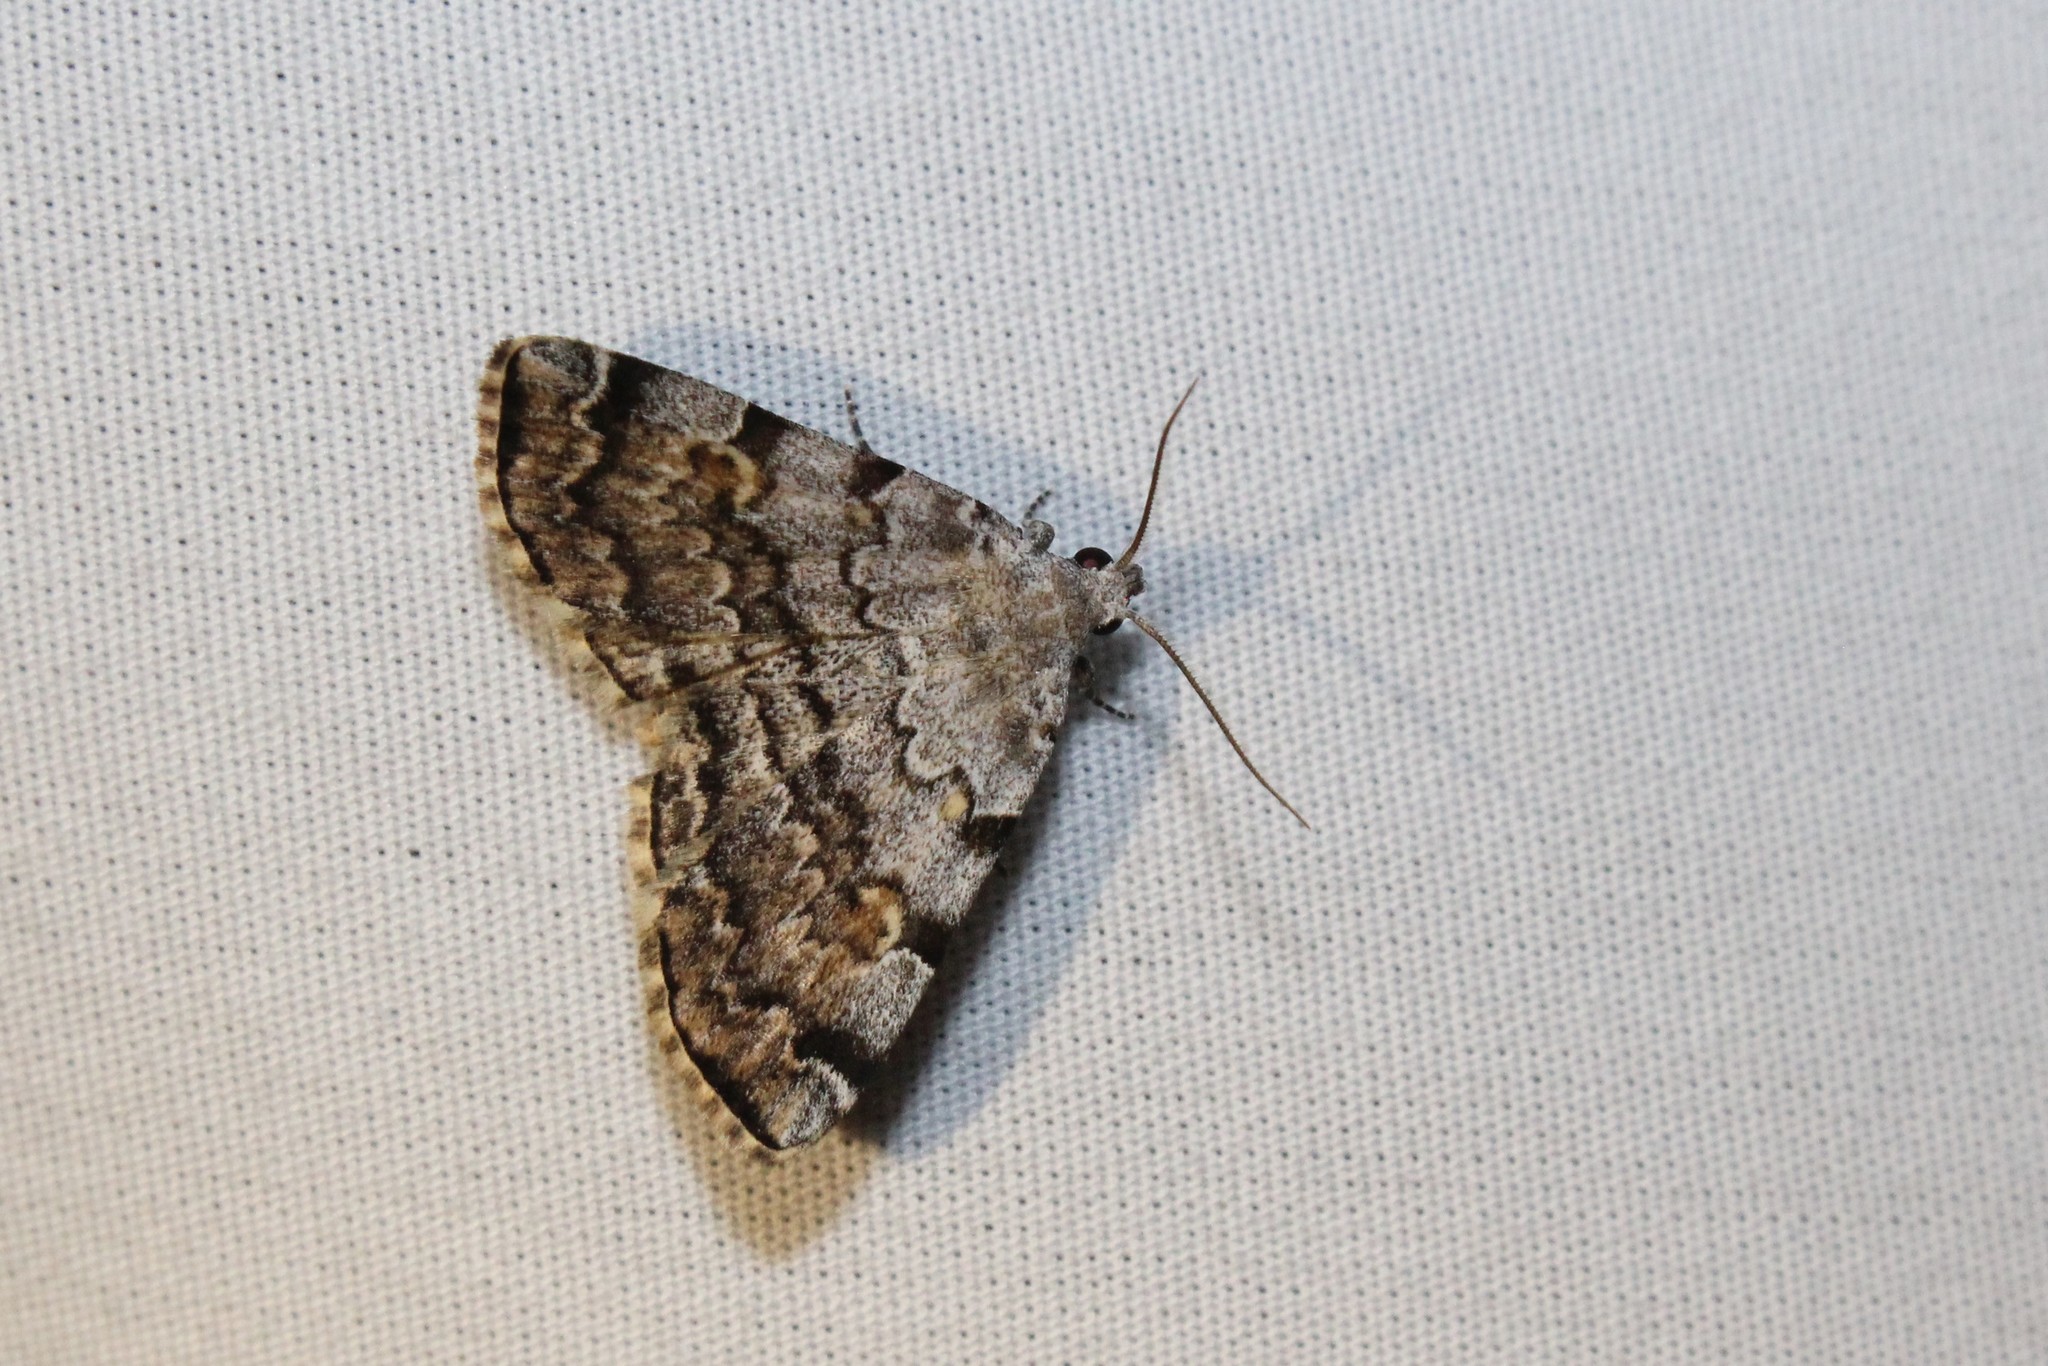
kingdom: Animalia
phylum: Arthropoda
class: Insecta
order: Lepidoptera
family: Erebidae
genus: Idia
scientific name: Idia americalis
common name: American idia moth
